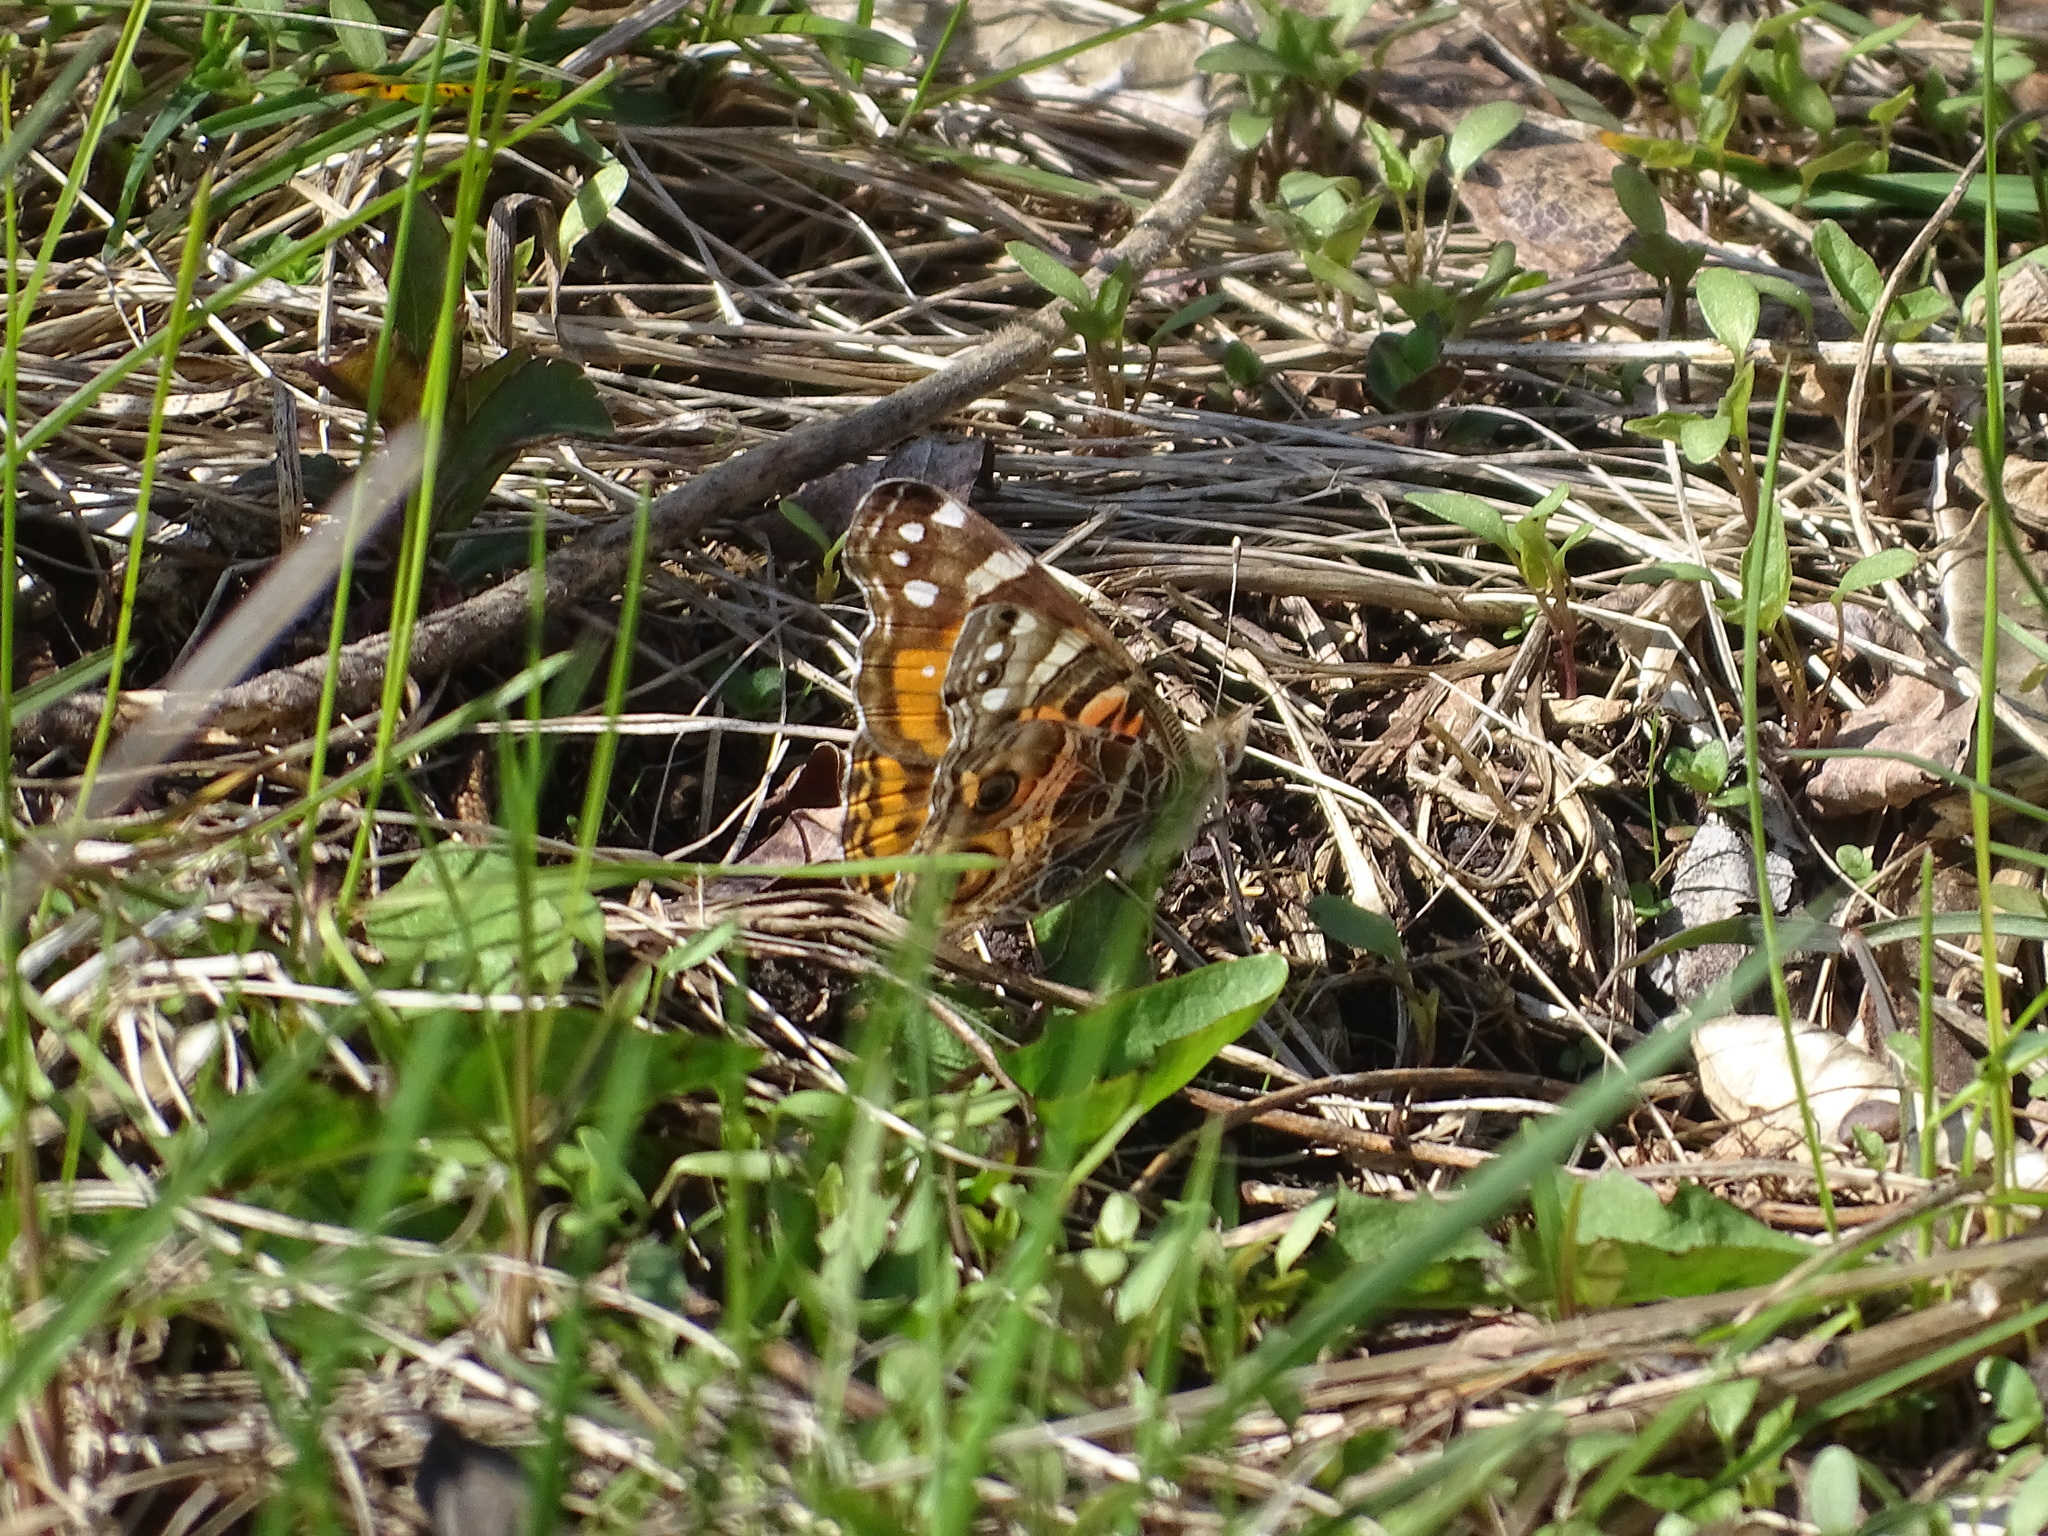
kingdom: Animalia
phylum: Arthropoda
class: Insecta
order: Lepidoptera
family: Nymphalidae
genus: Vanessa
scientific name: Vanessa virginiensis
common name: American lady
